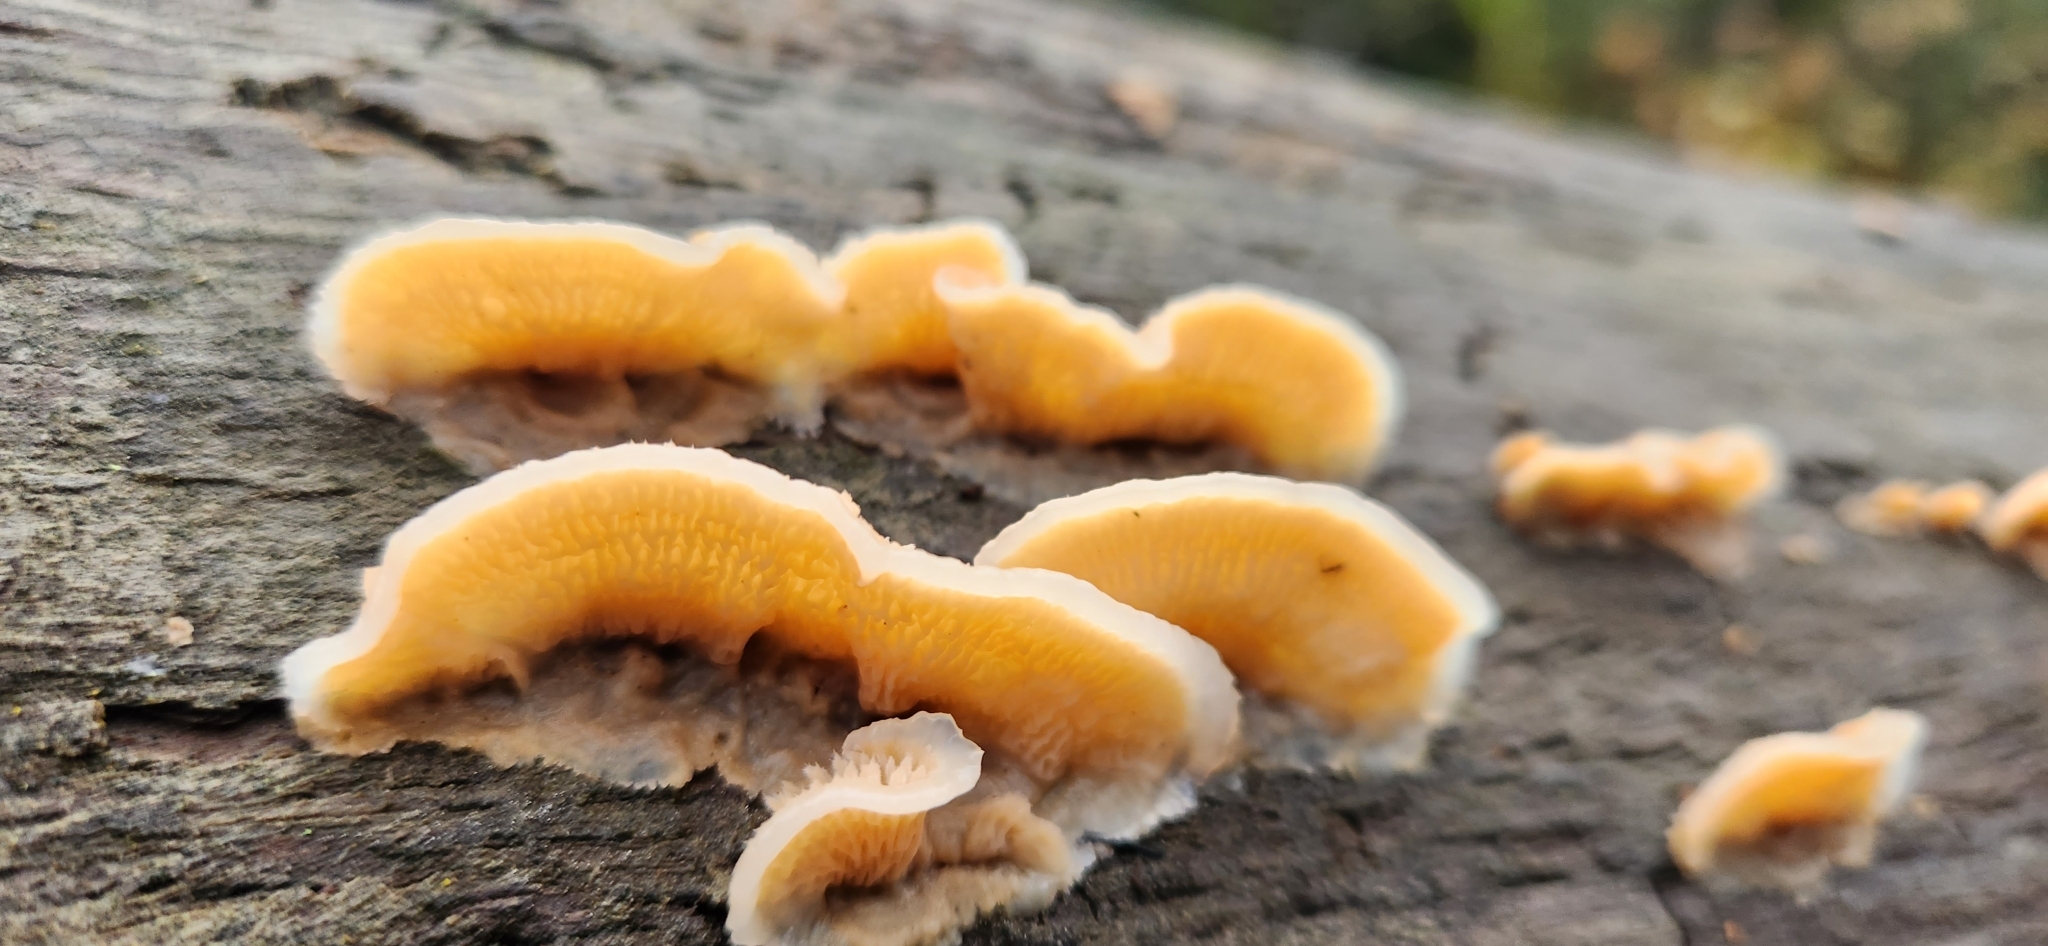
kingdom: Fungi
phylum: Basidiomycota
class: Agaricomycetes
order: Polyporales
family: Meruliaceae
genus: Phlebia
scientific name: Phlebia tremellosa
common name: Jelly rot
